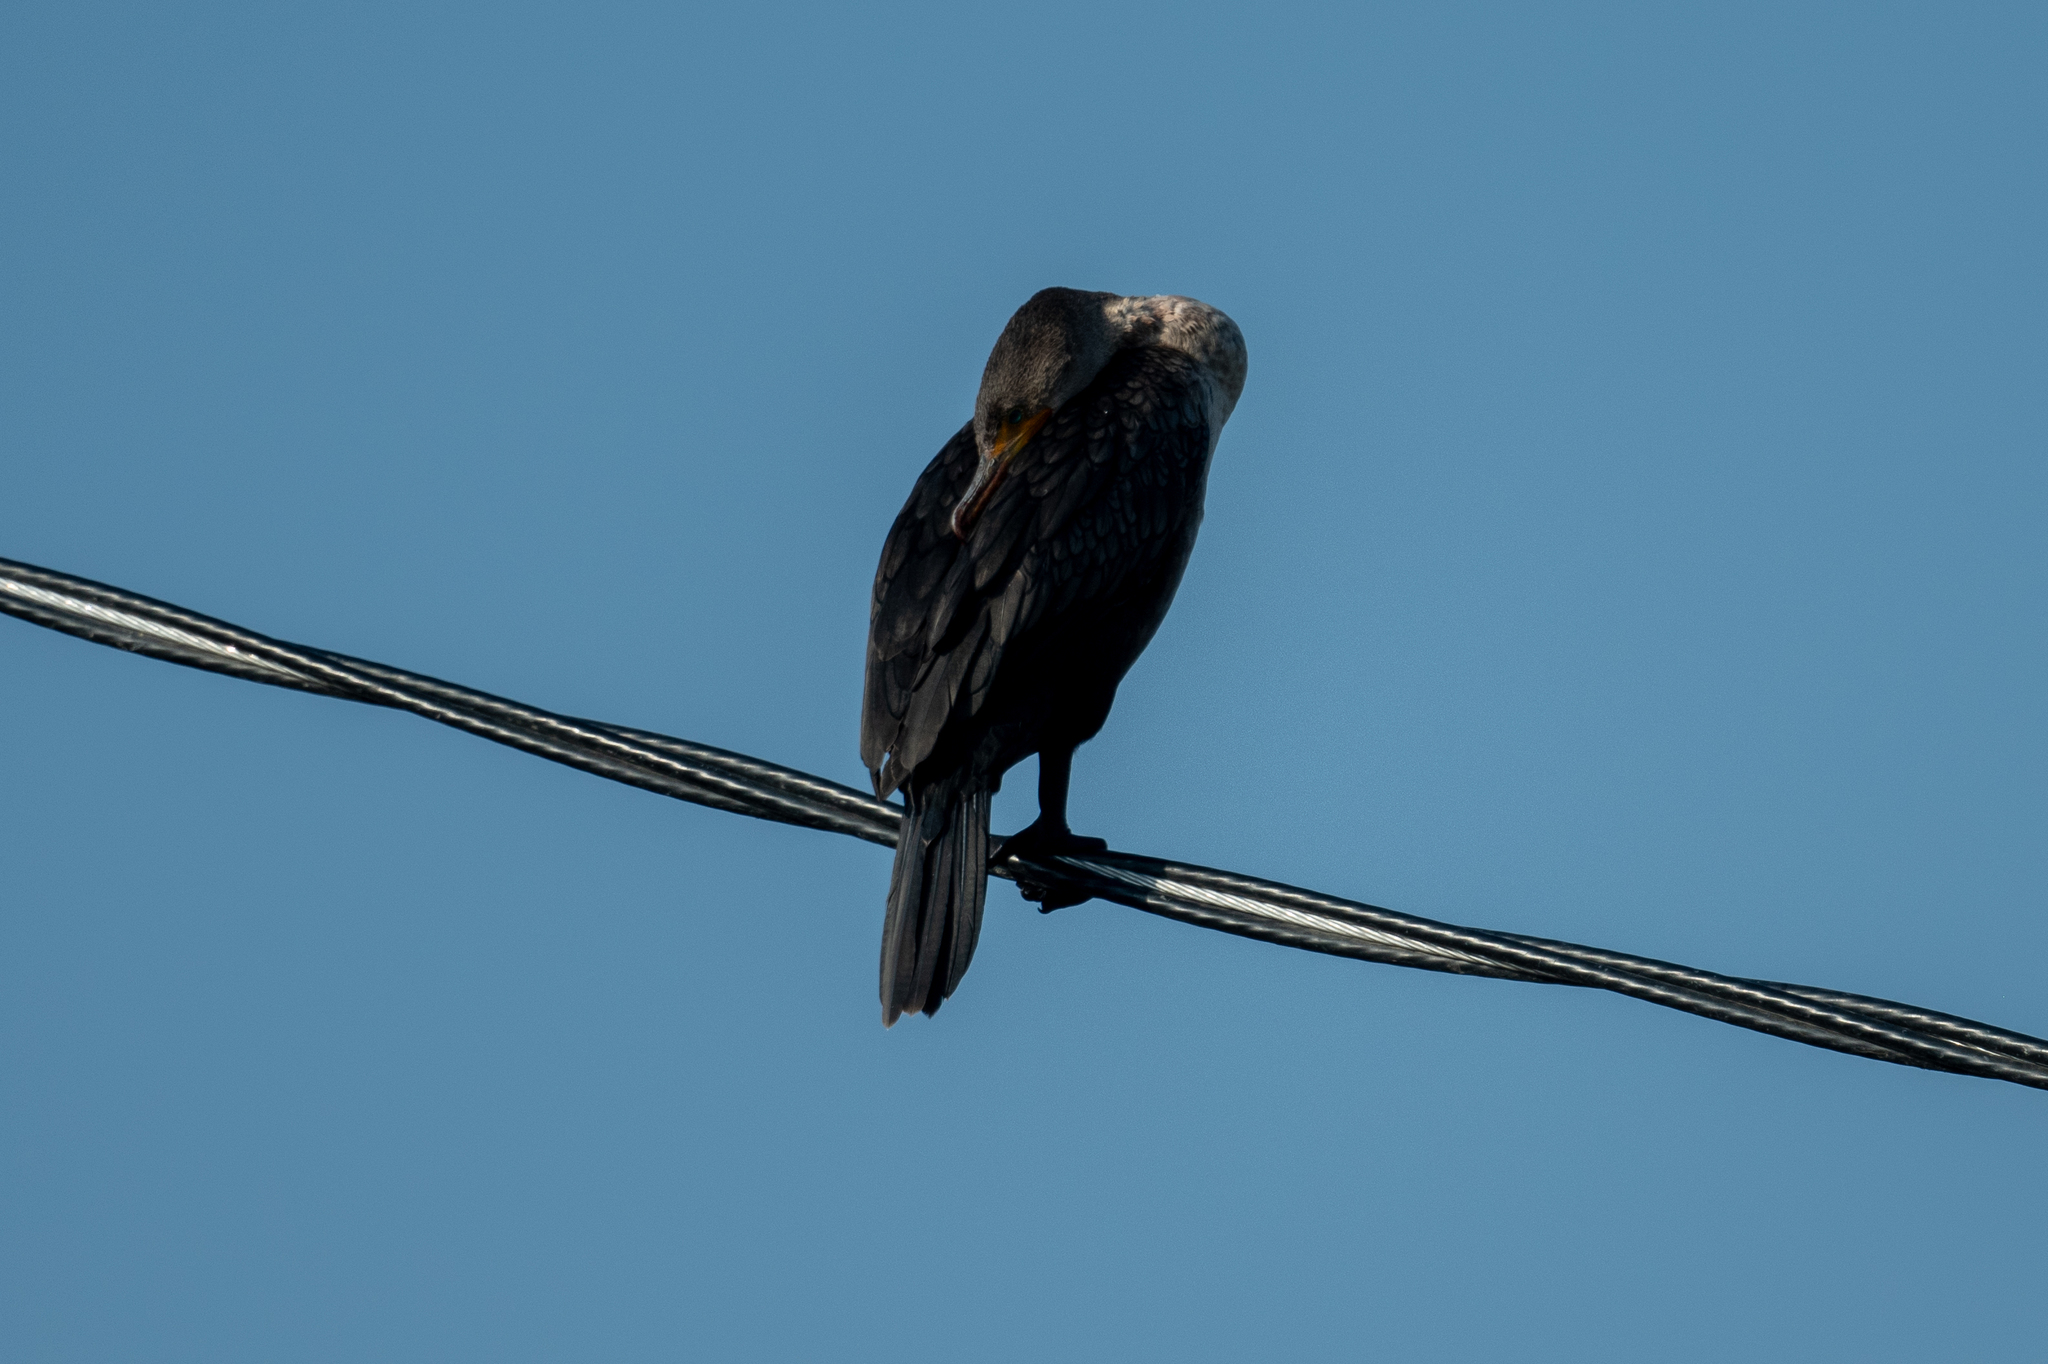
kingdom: Animalia
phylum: Chordata
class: Aves
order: Suliformes
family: Phalacrocoracidae
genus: Phalacrocorax
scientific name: Phalacrocorax auritus
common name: Double-crested cormorant
